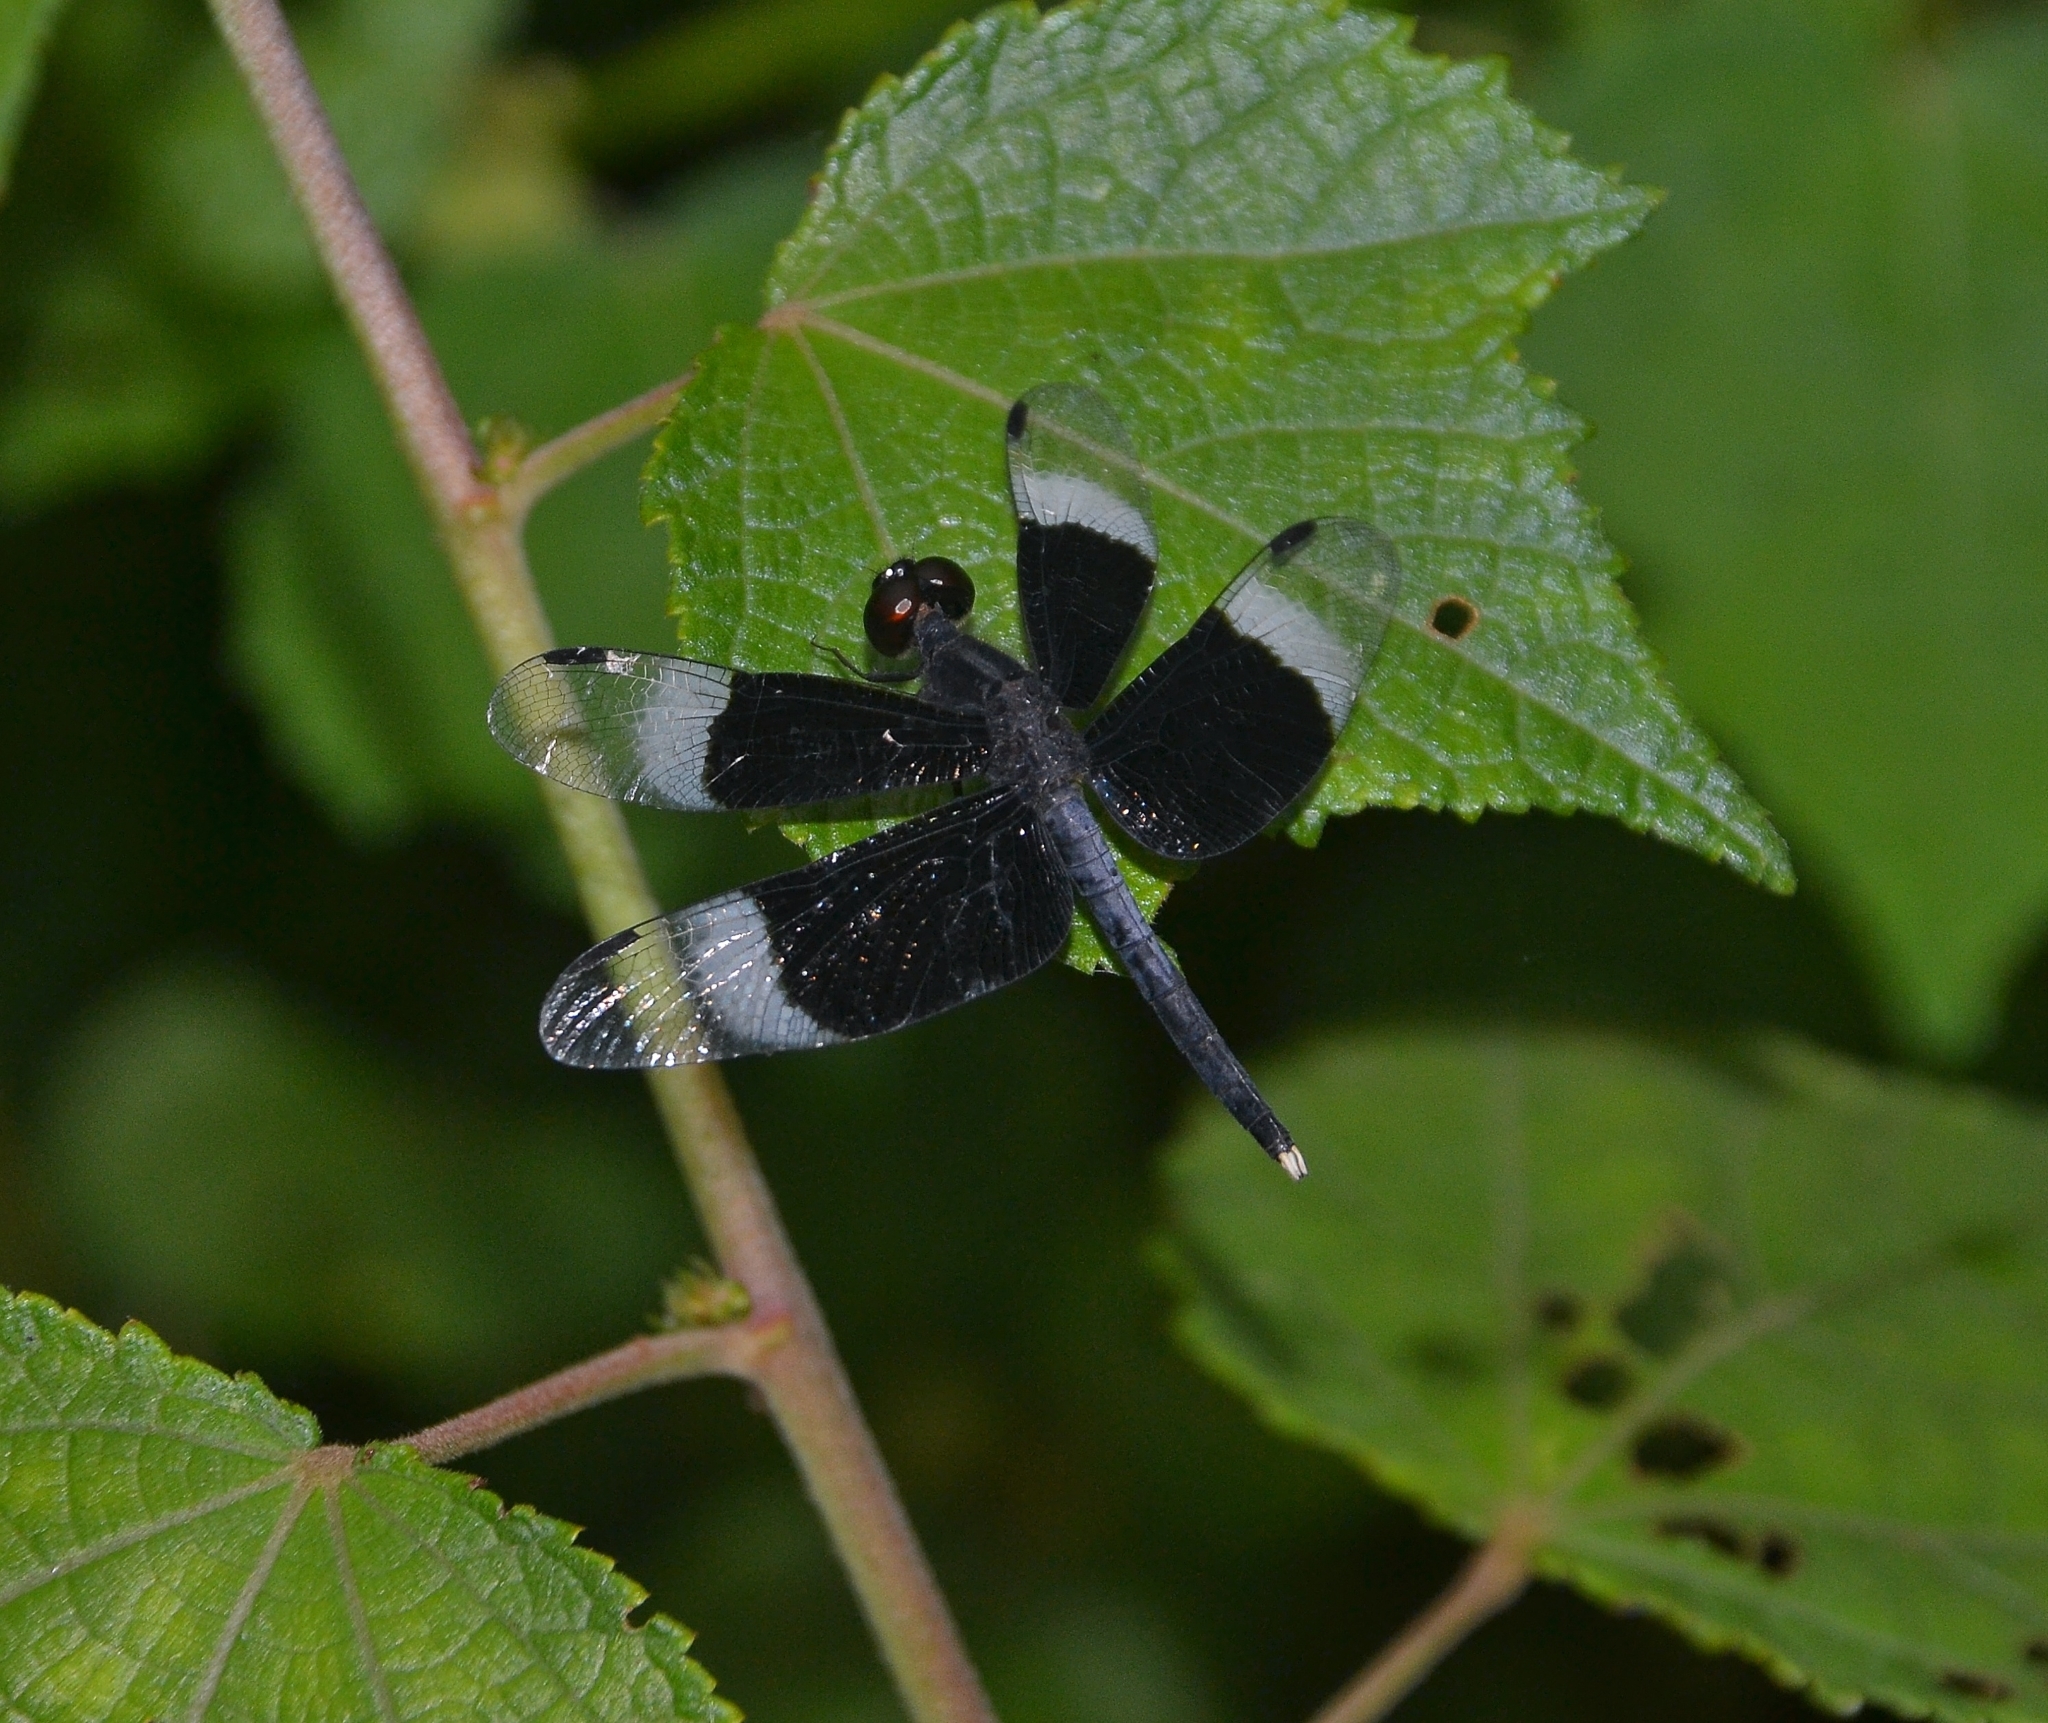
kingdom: Animalia
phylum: Arthropoda
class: Insecta
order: Odonata
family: Libellulidae
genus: Neurothemis
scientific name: Neurothemis tullia
